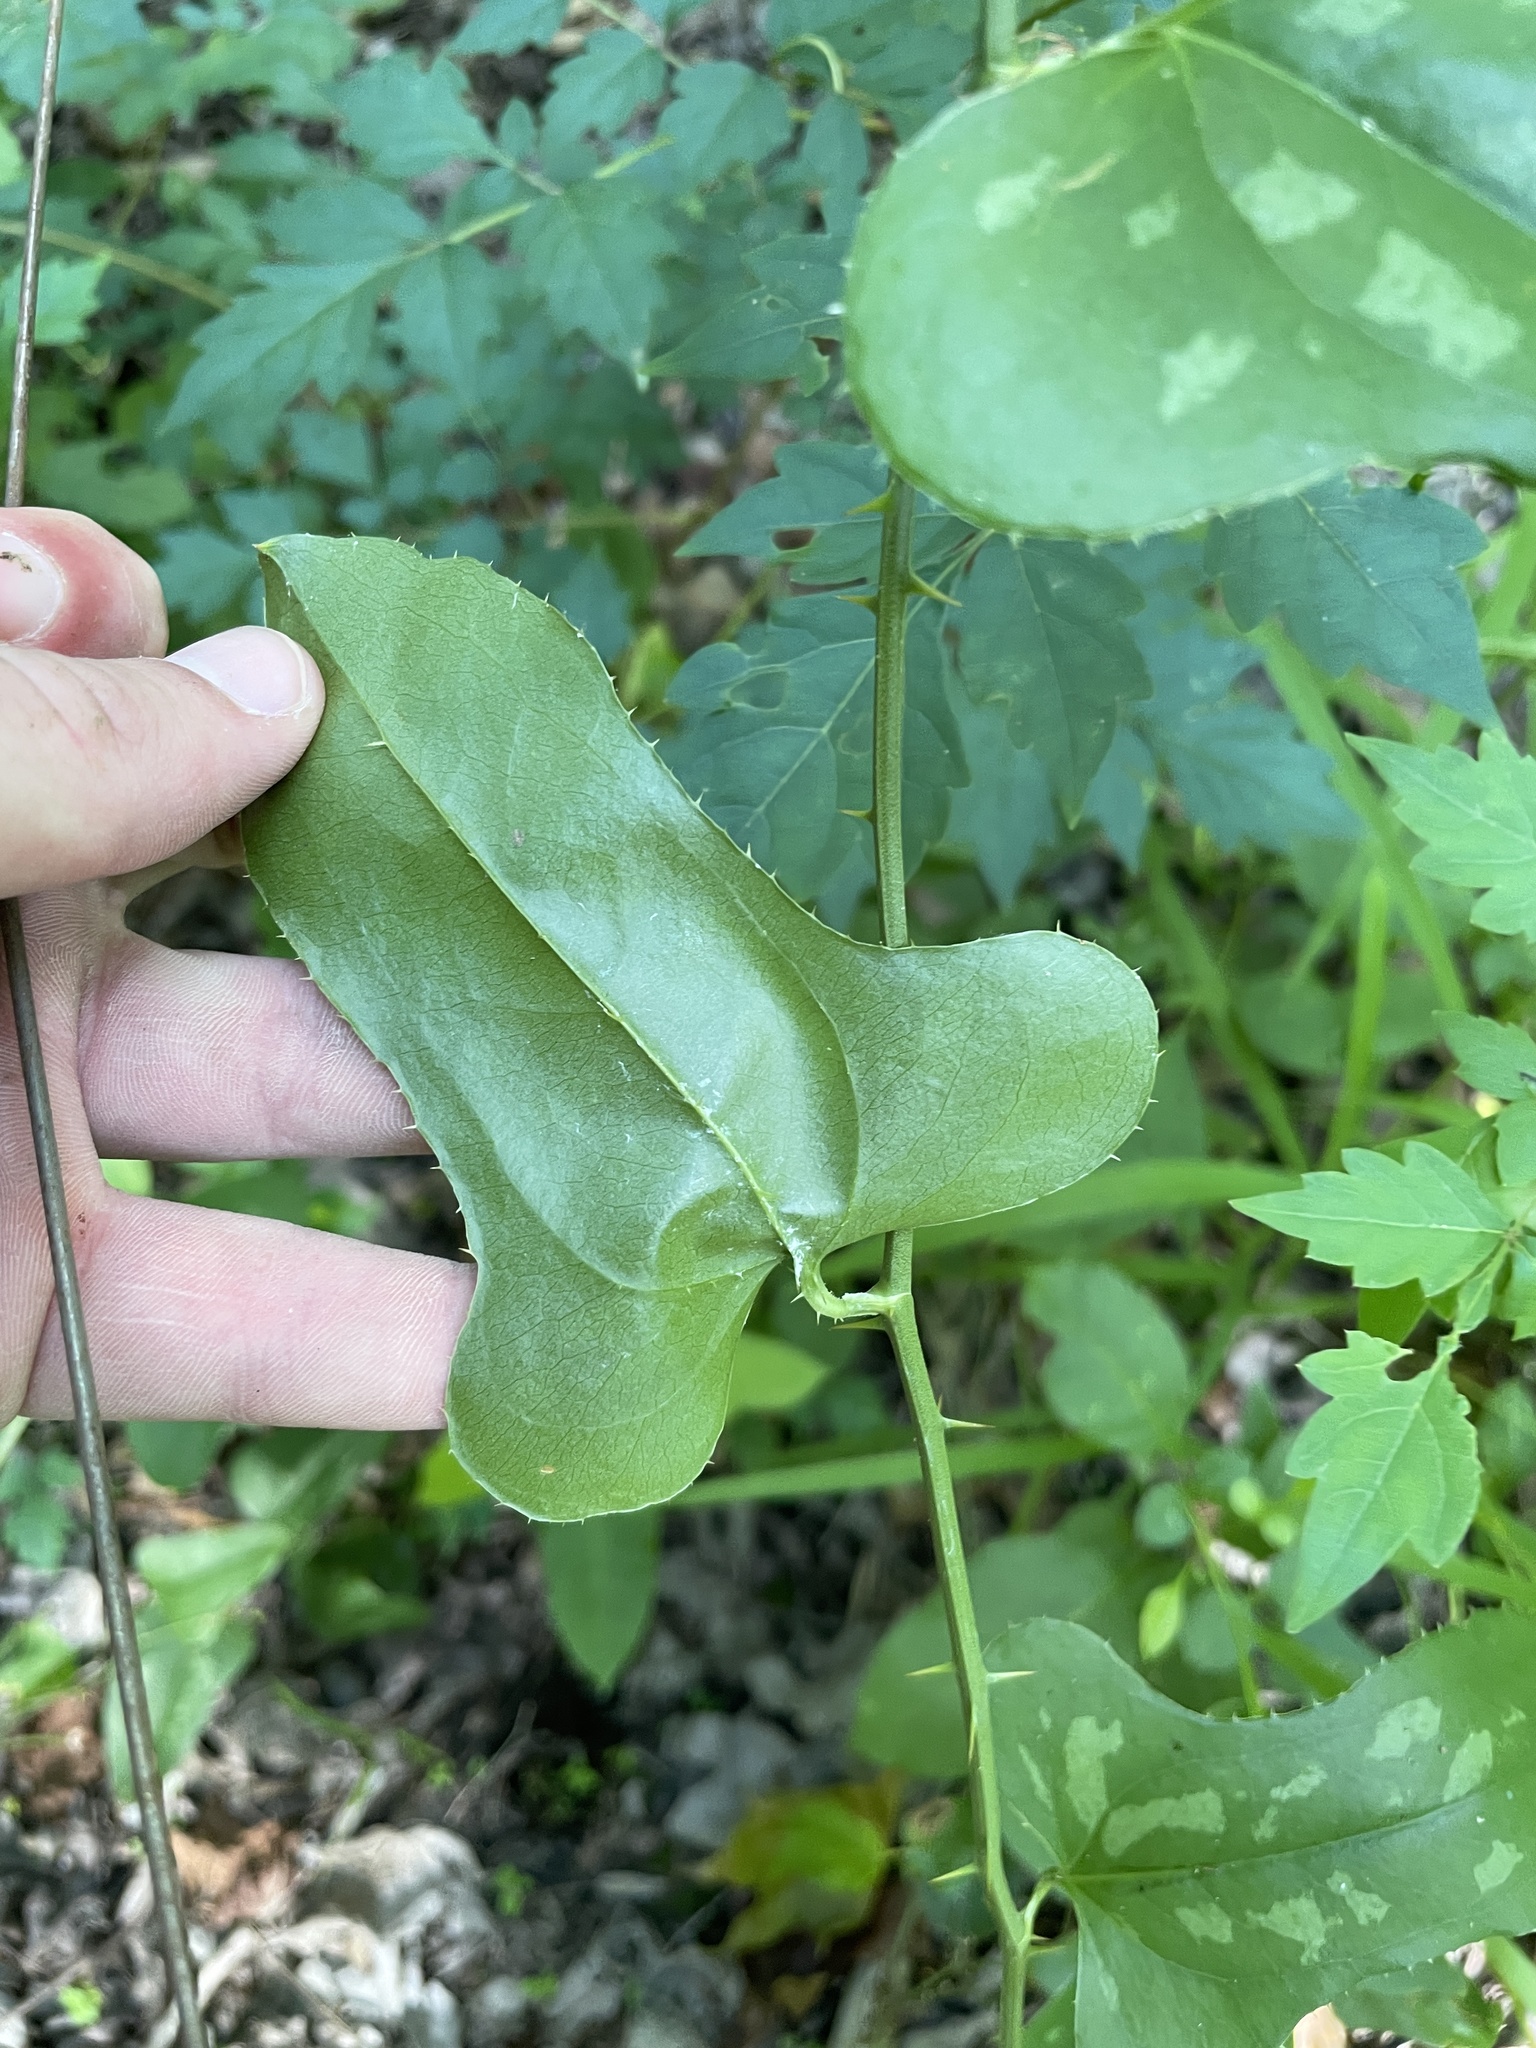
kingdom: Plantae
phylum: Tracheophyta
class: Liliopsida
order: Liliales
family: Smilacaceae
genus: Smilax
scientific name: Smilax bona-nox
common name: Catbrier
